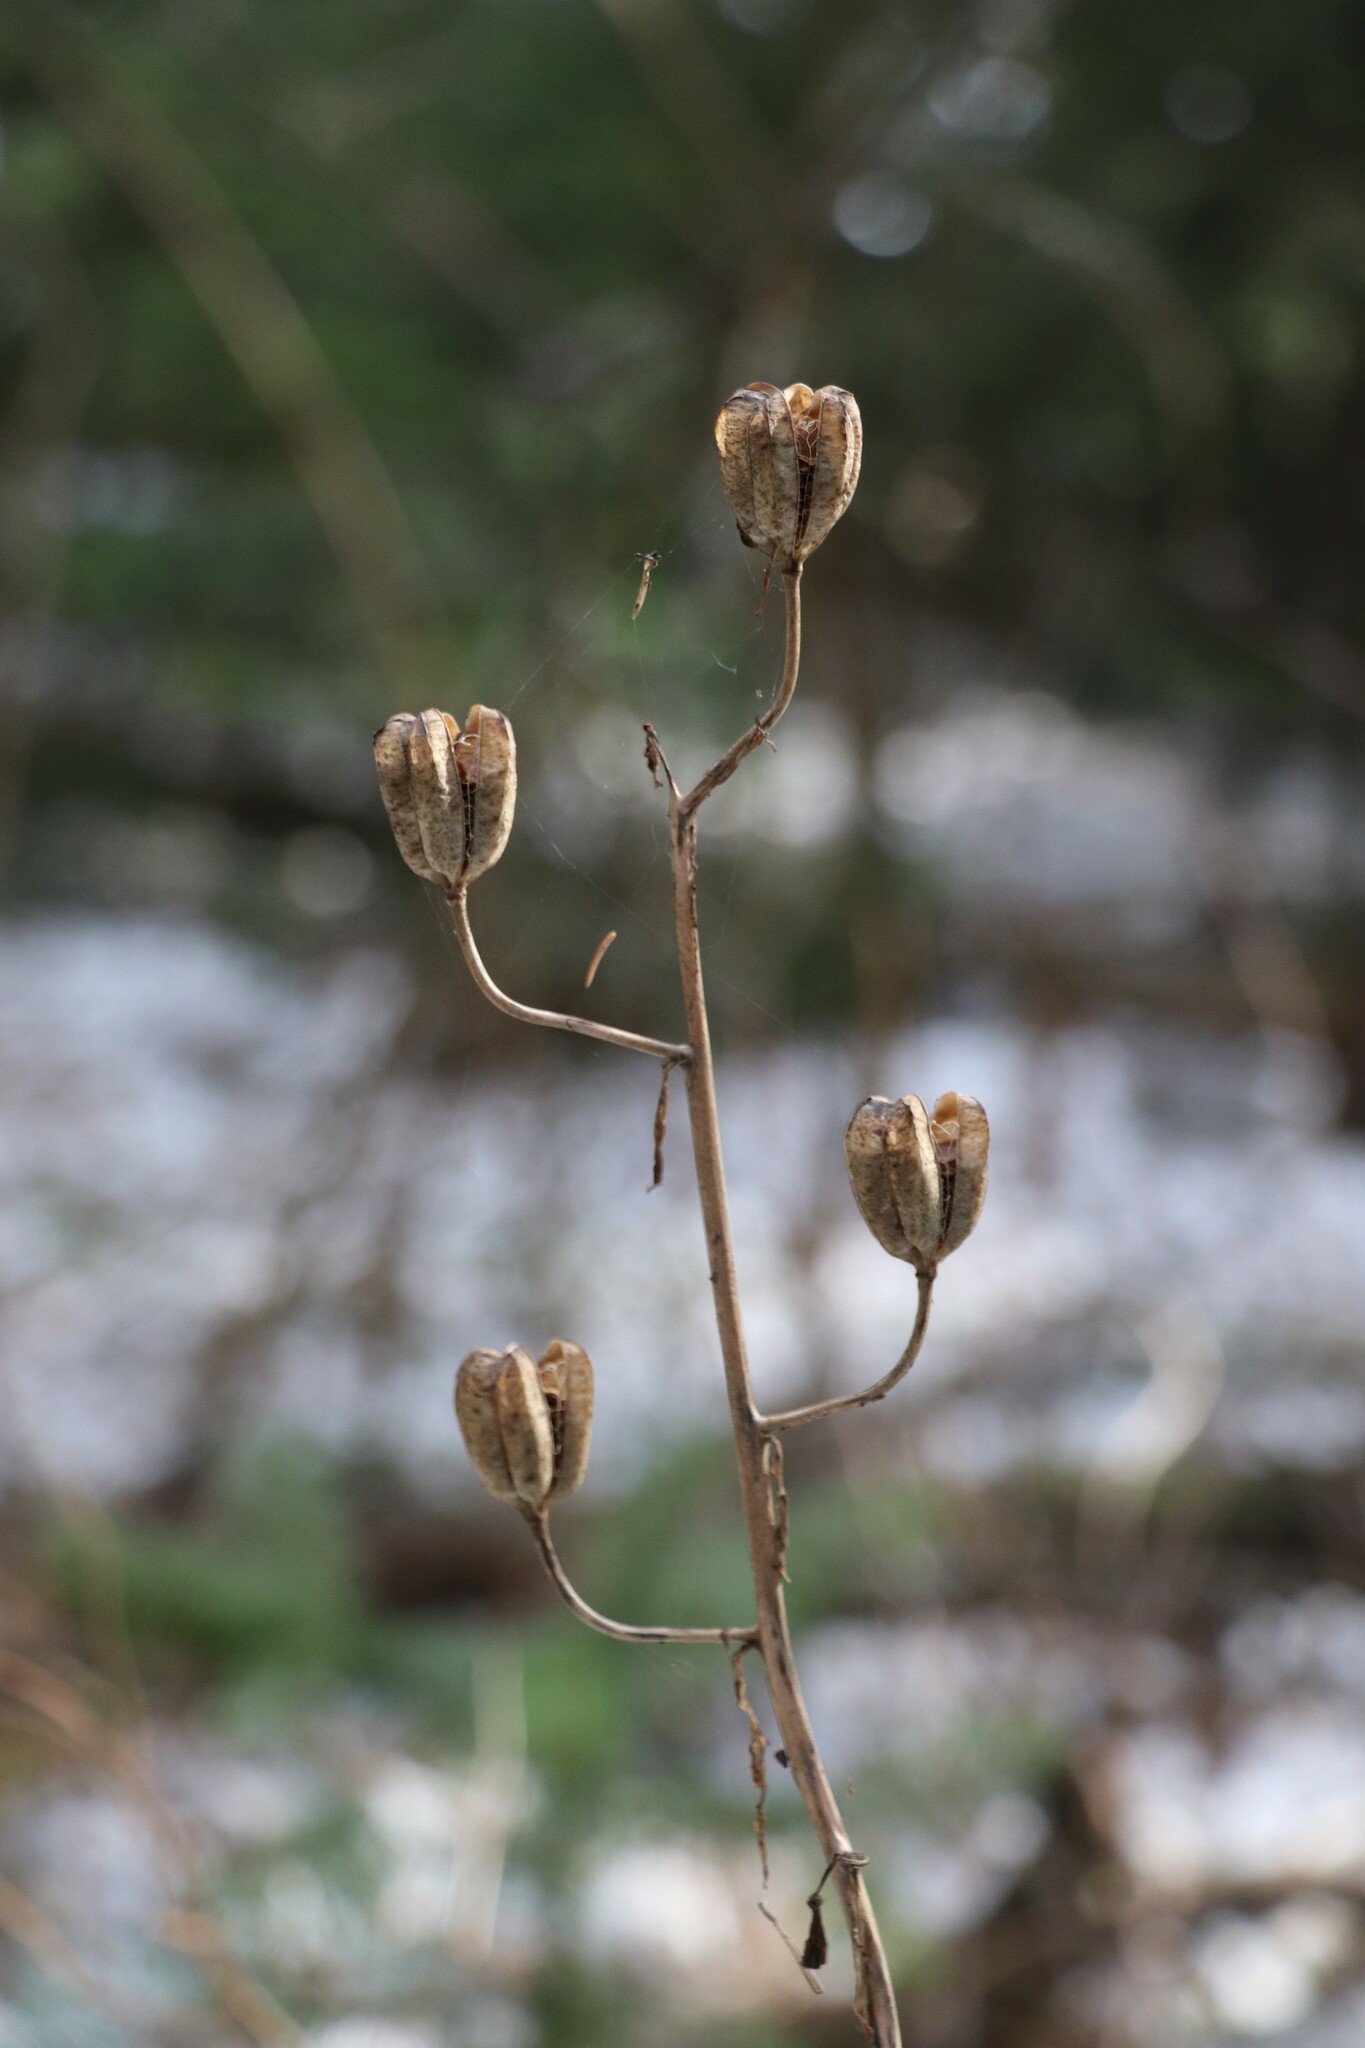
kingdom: Plantae
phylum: Tracheophyta
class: Liliopsida
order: Liliales
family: Liliaceae
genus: Lilium
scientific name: Lilium martagon
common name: Martagon lily
